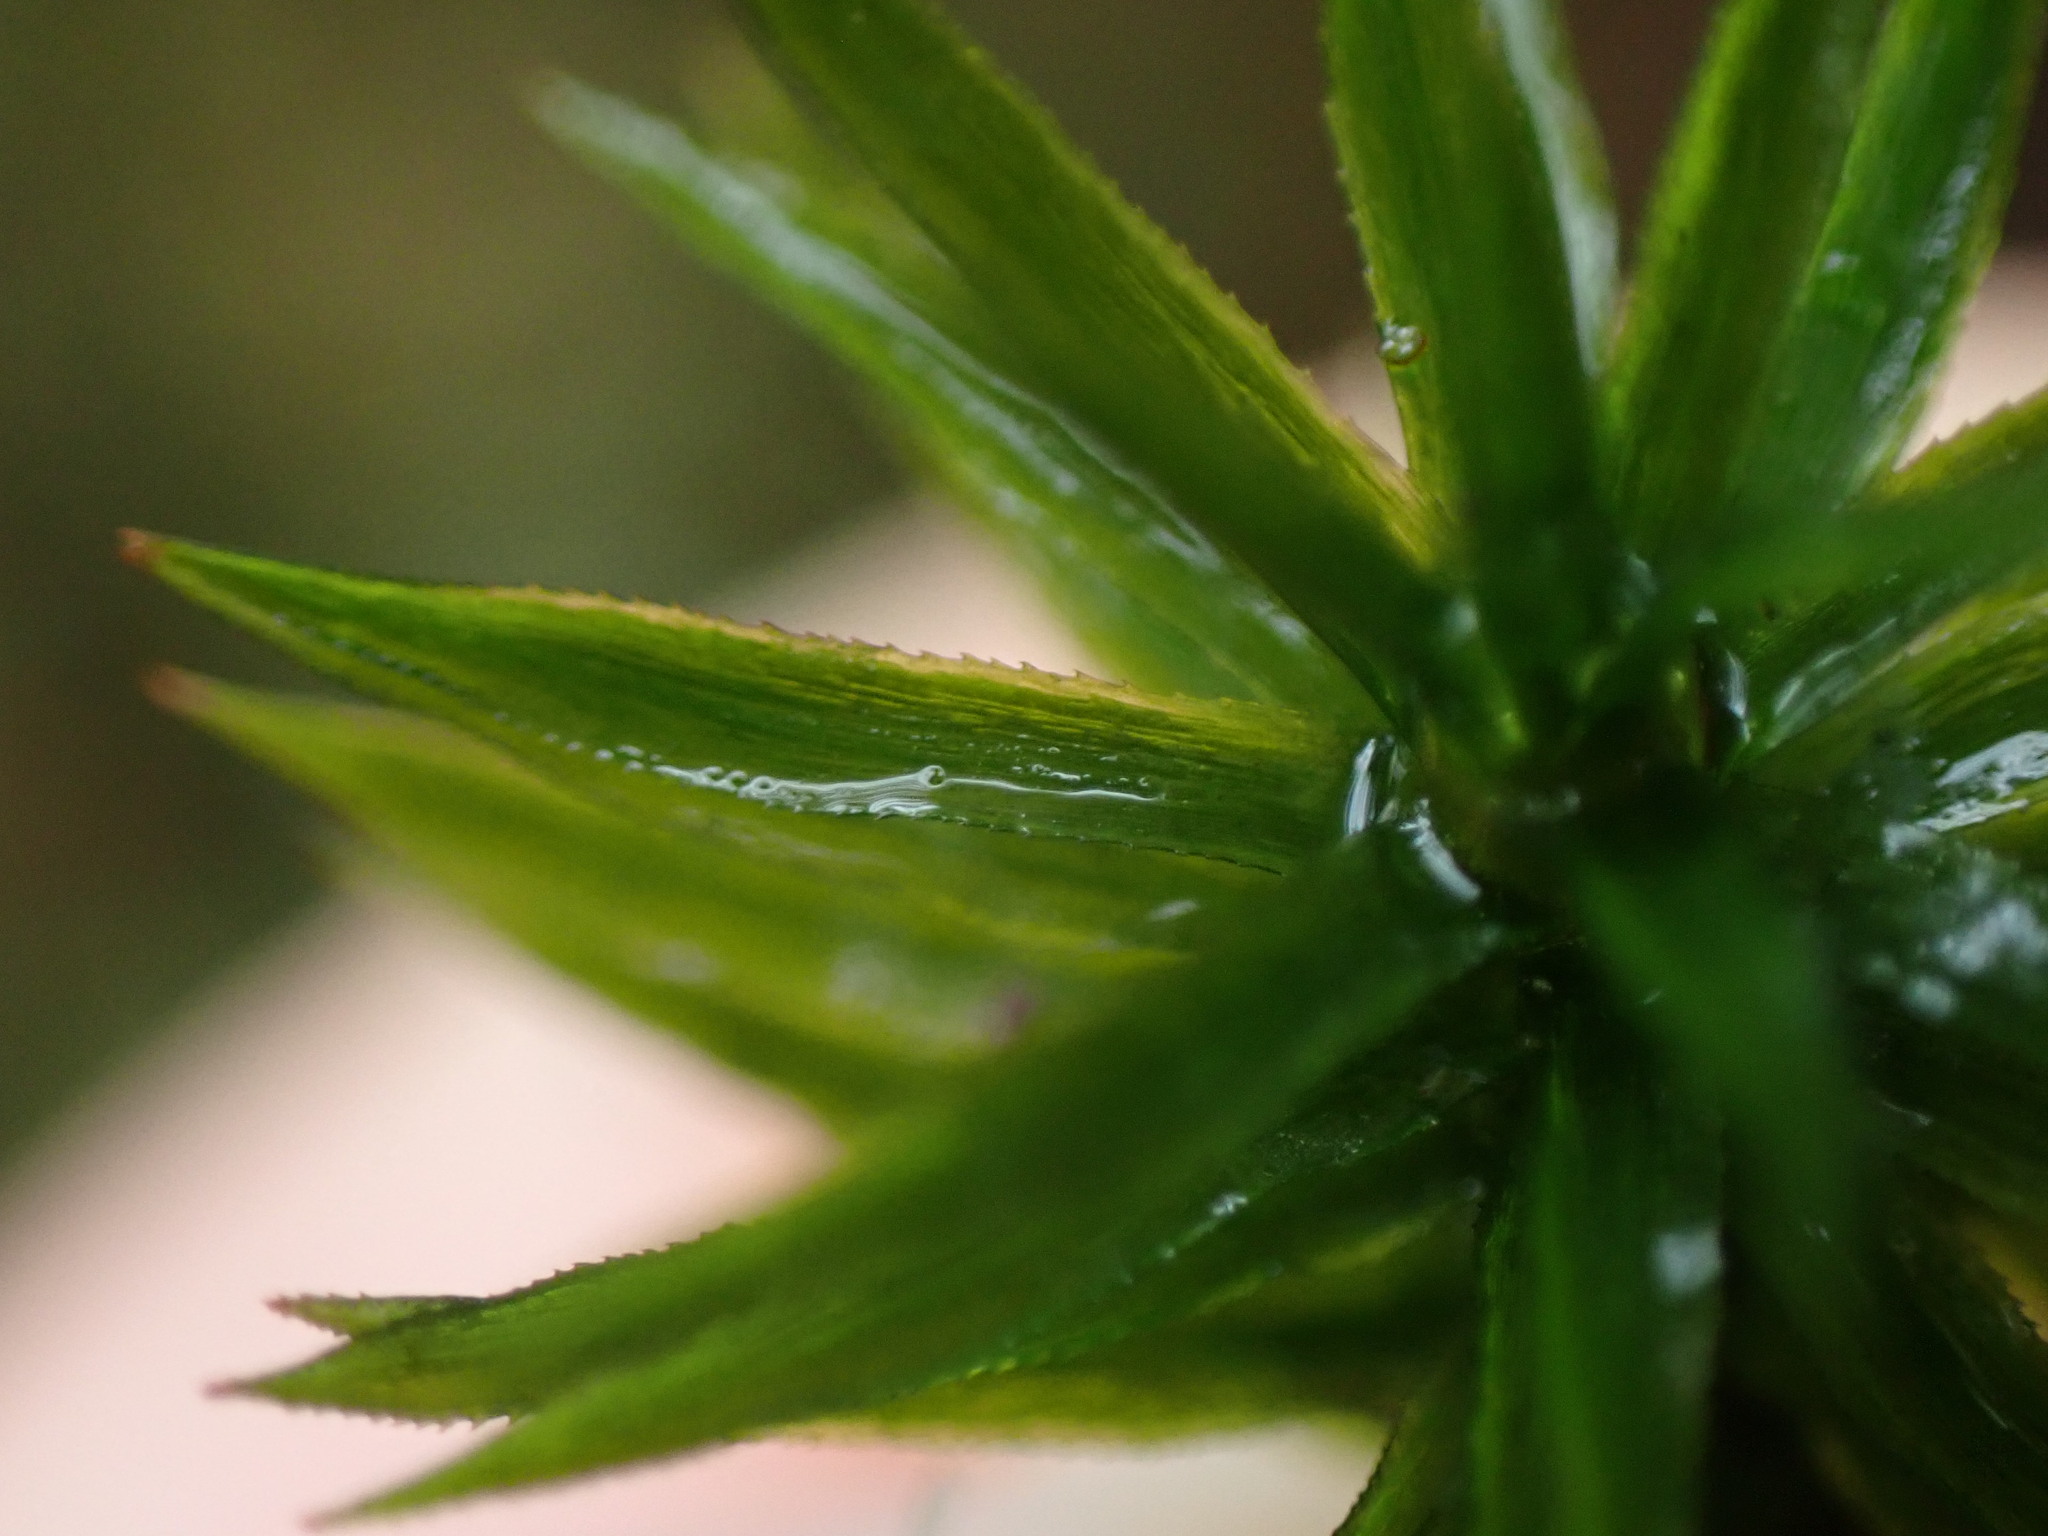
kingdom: Plantae
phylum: Bryophyta
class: Polytrichopsida
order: Polytrichales
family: Polytrichaceae
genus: Pogonatum
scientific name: Pogonatum contortum
